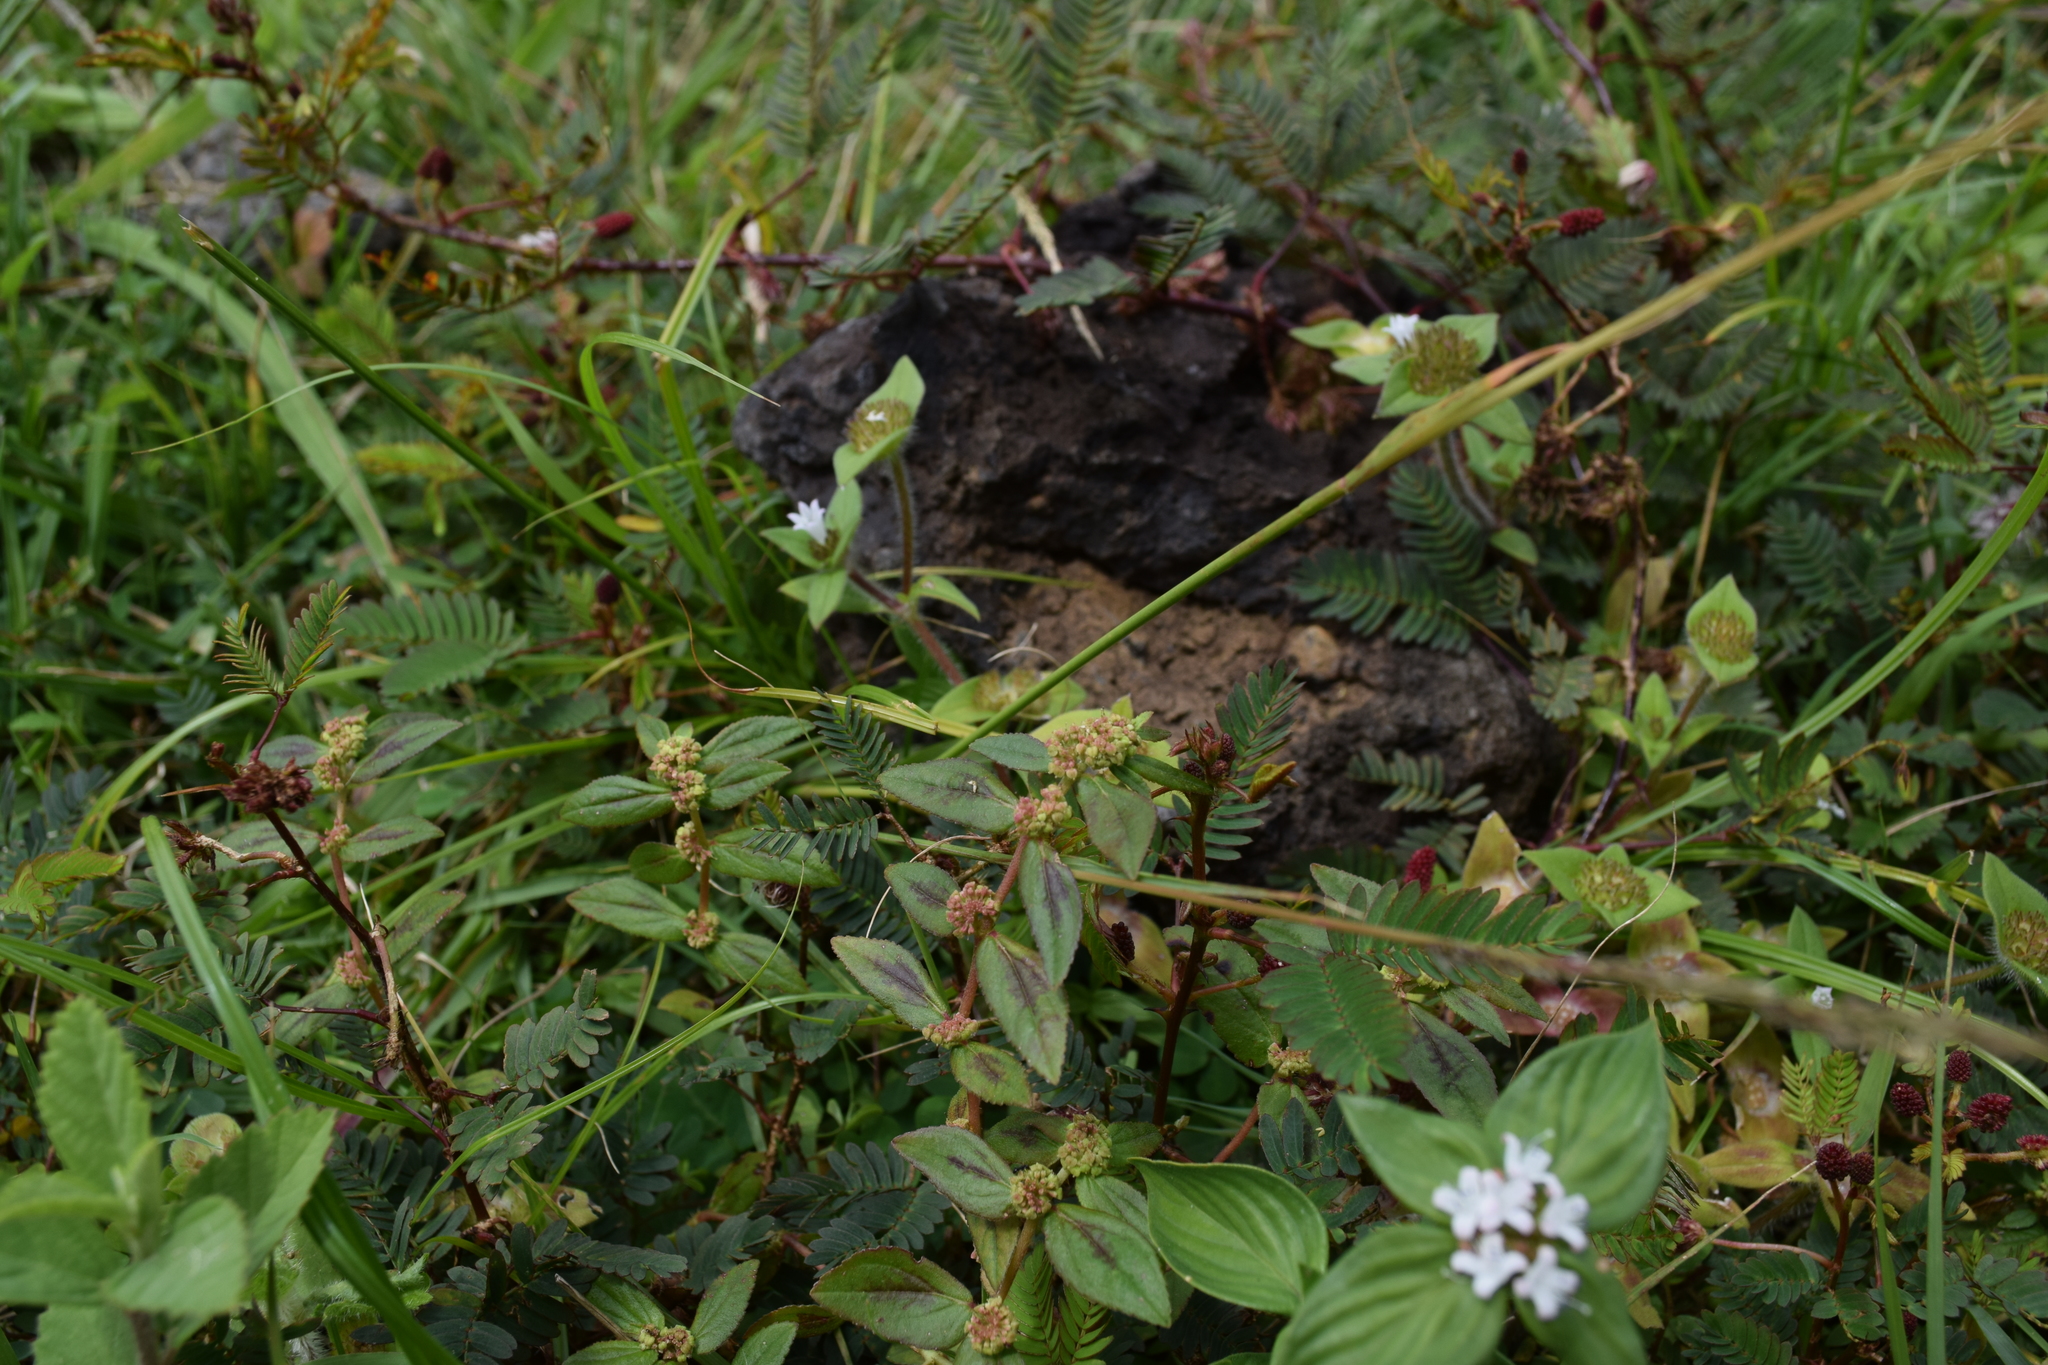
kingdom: Plantae
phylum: Tracheophyta
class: Magnoliopsida
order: Malpighiales
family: Euphorbiaceae
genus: Euphorbia
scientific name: Euphorbia hirta
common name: Pillpod sandmat
